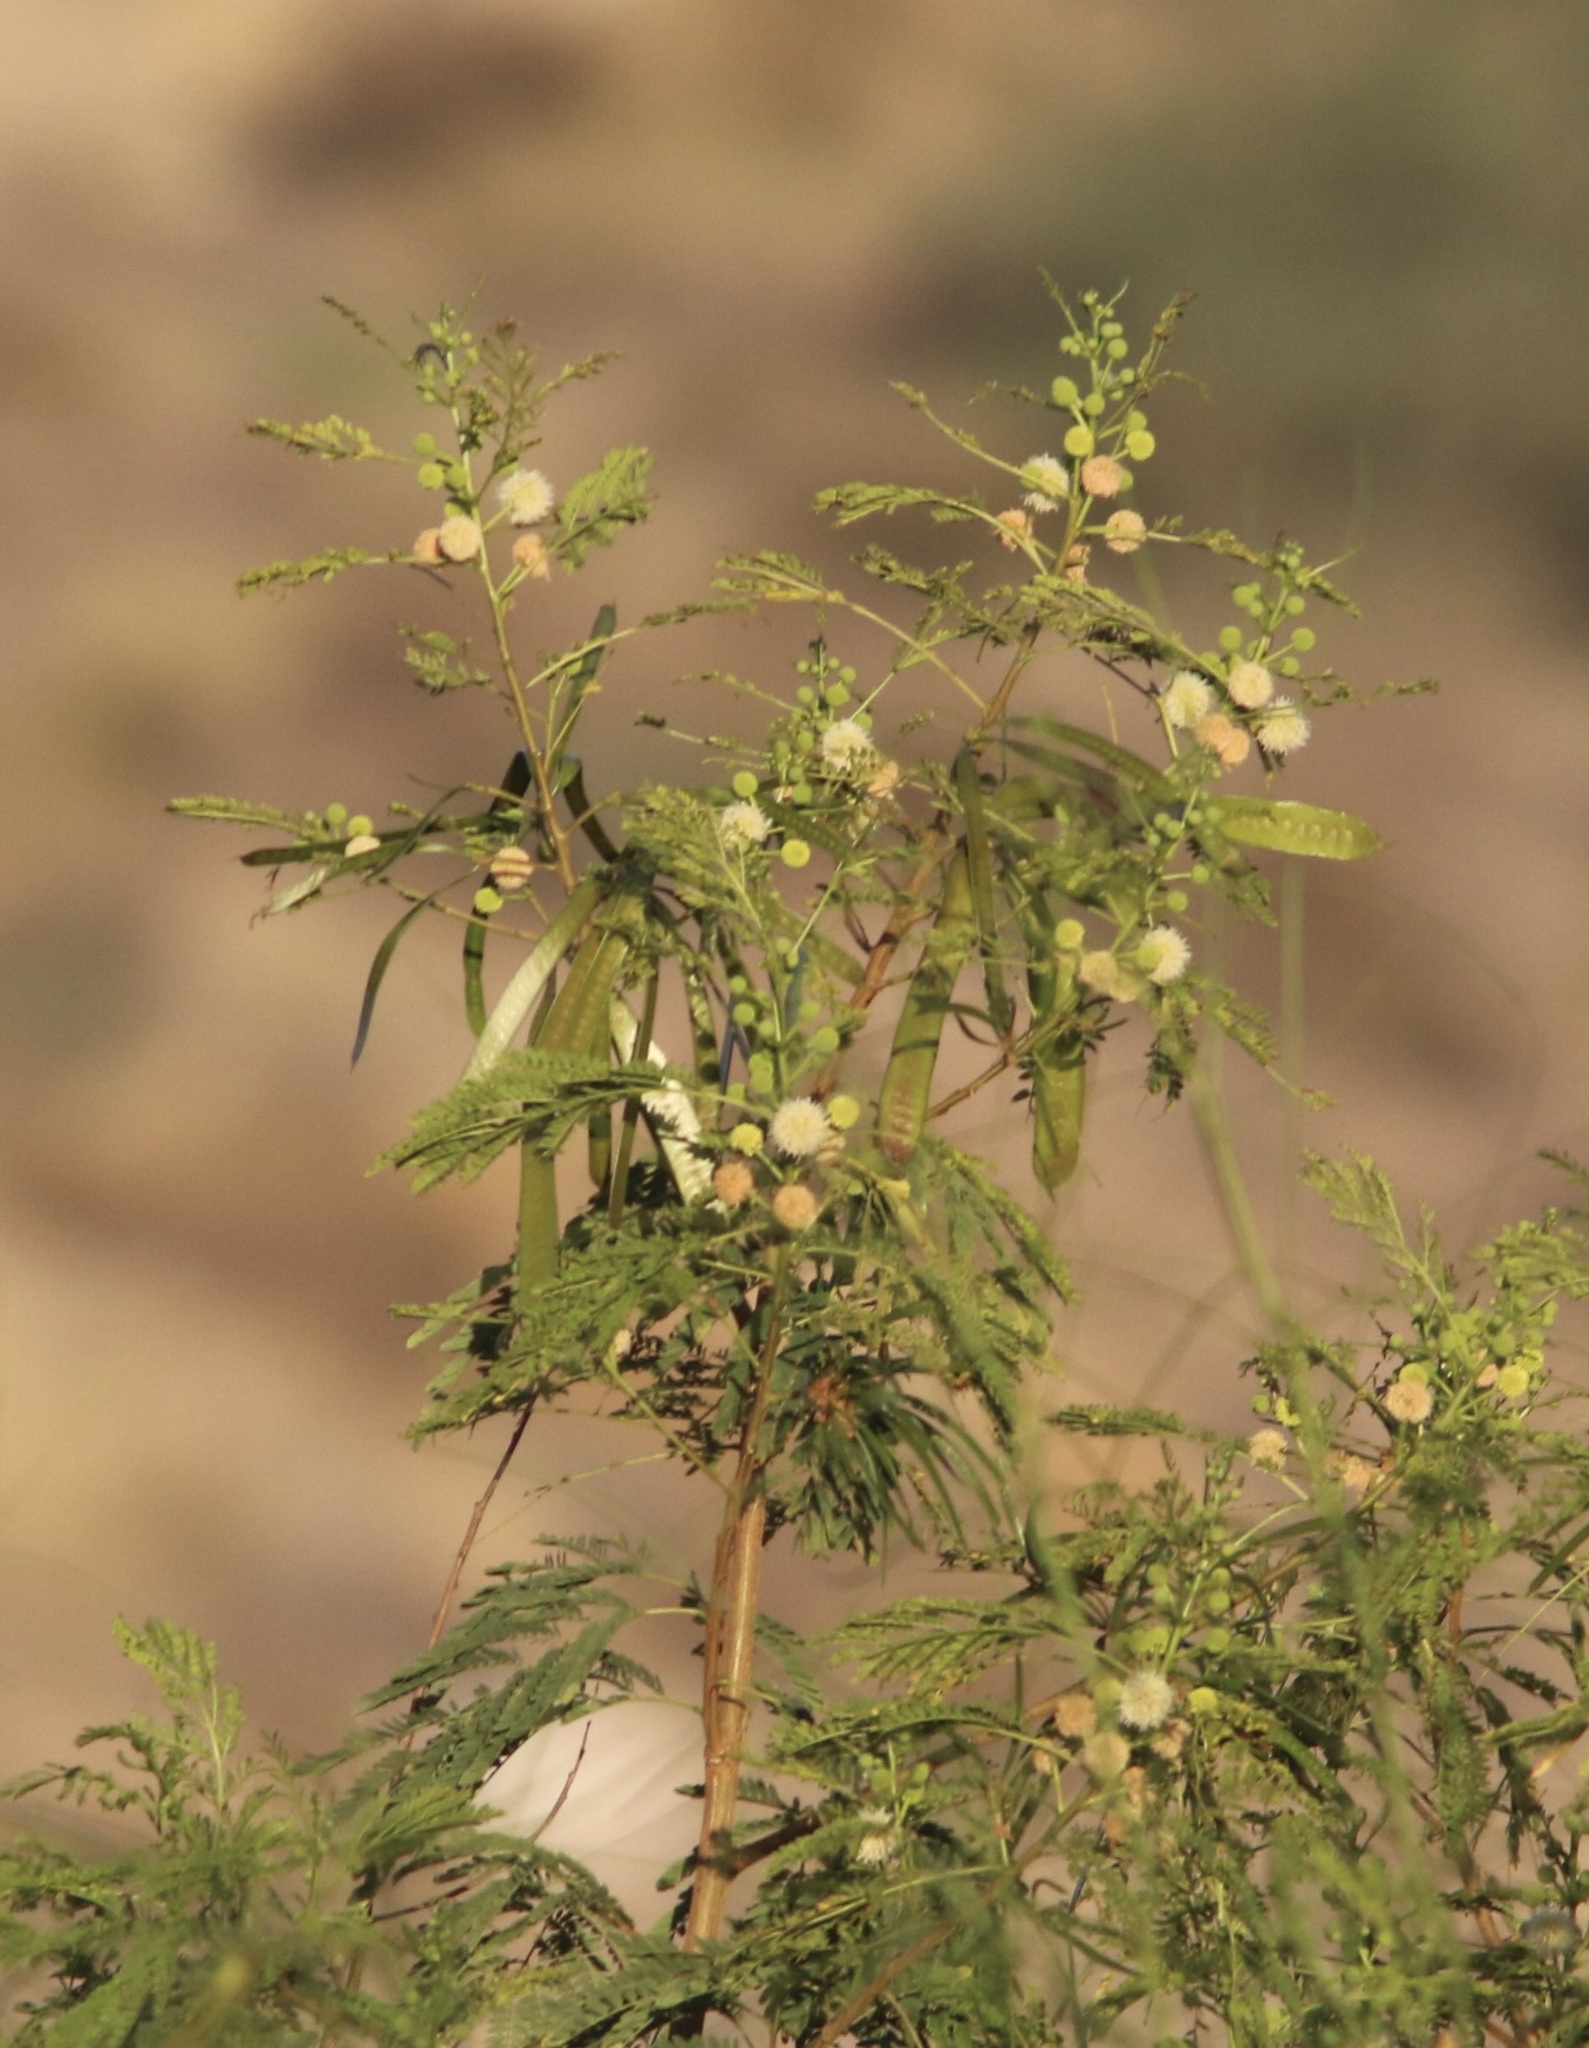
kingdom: Plantae
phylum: Tracheophyta
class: Magnoliopsida
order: Fabales
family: Fabaceae
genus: Leucaena
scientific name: Leucaena leucocephala
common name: White leadtree
